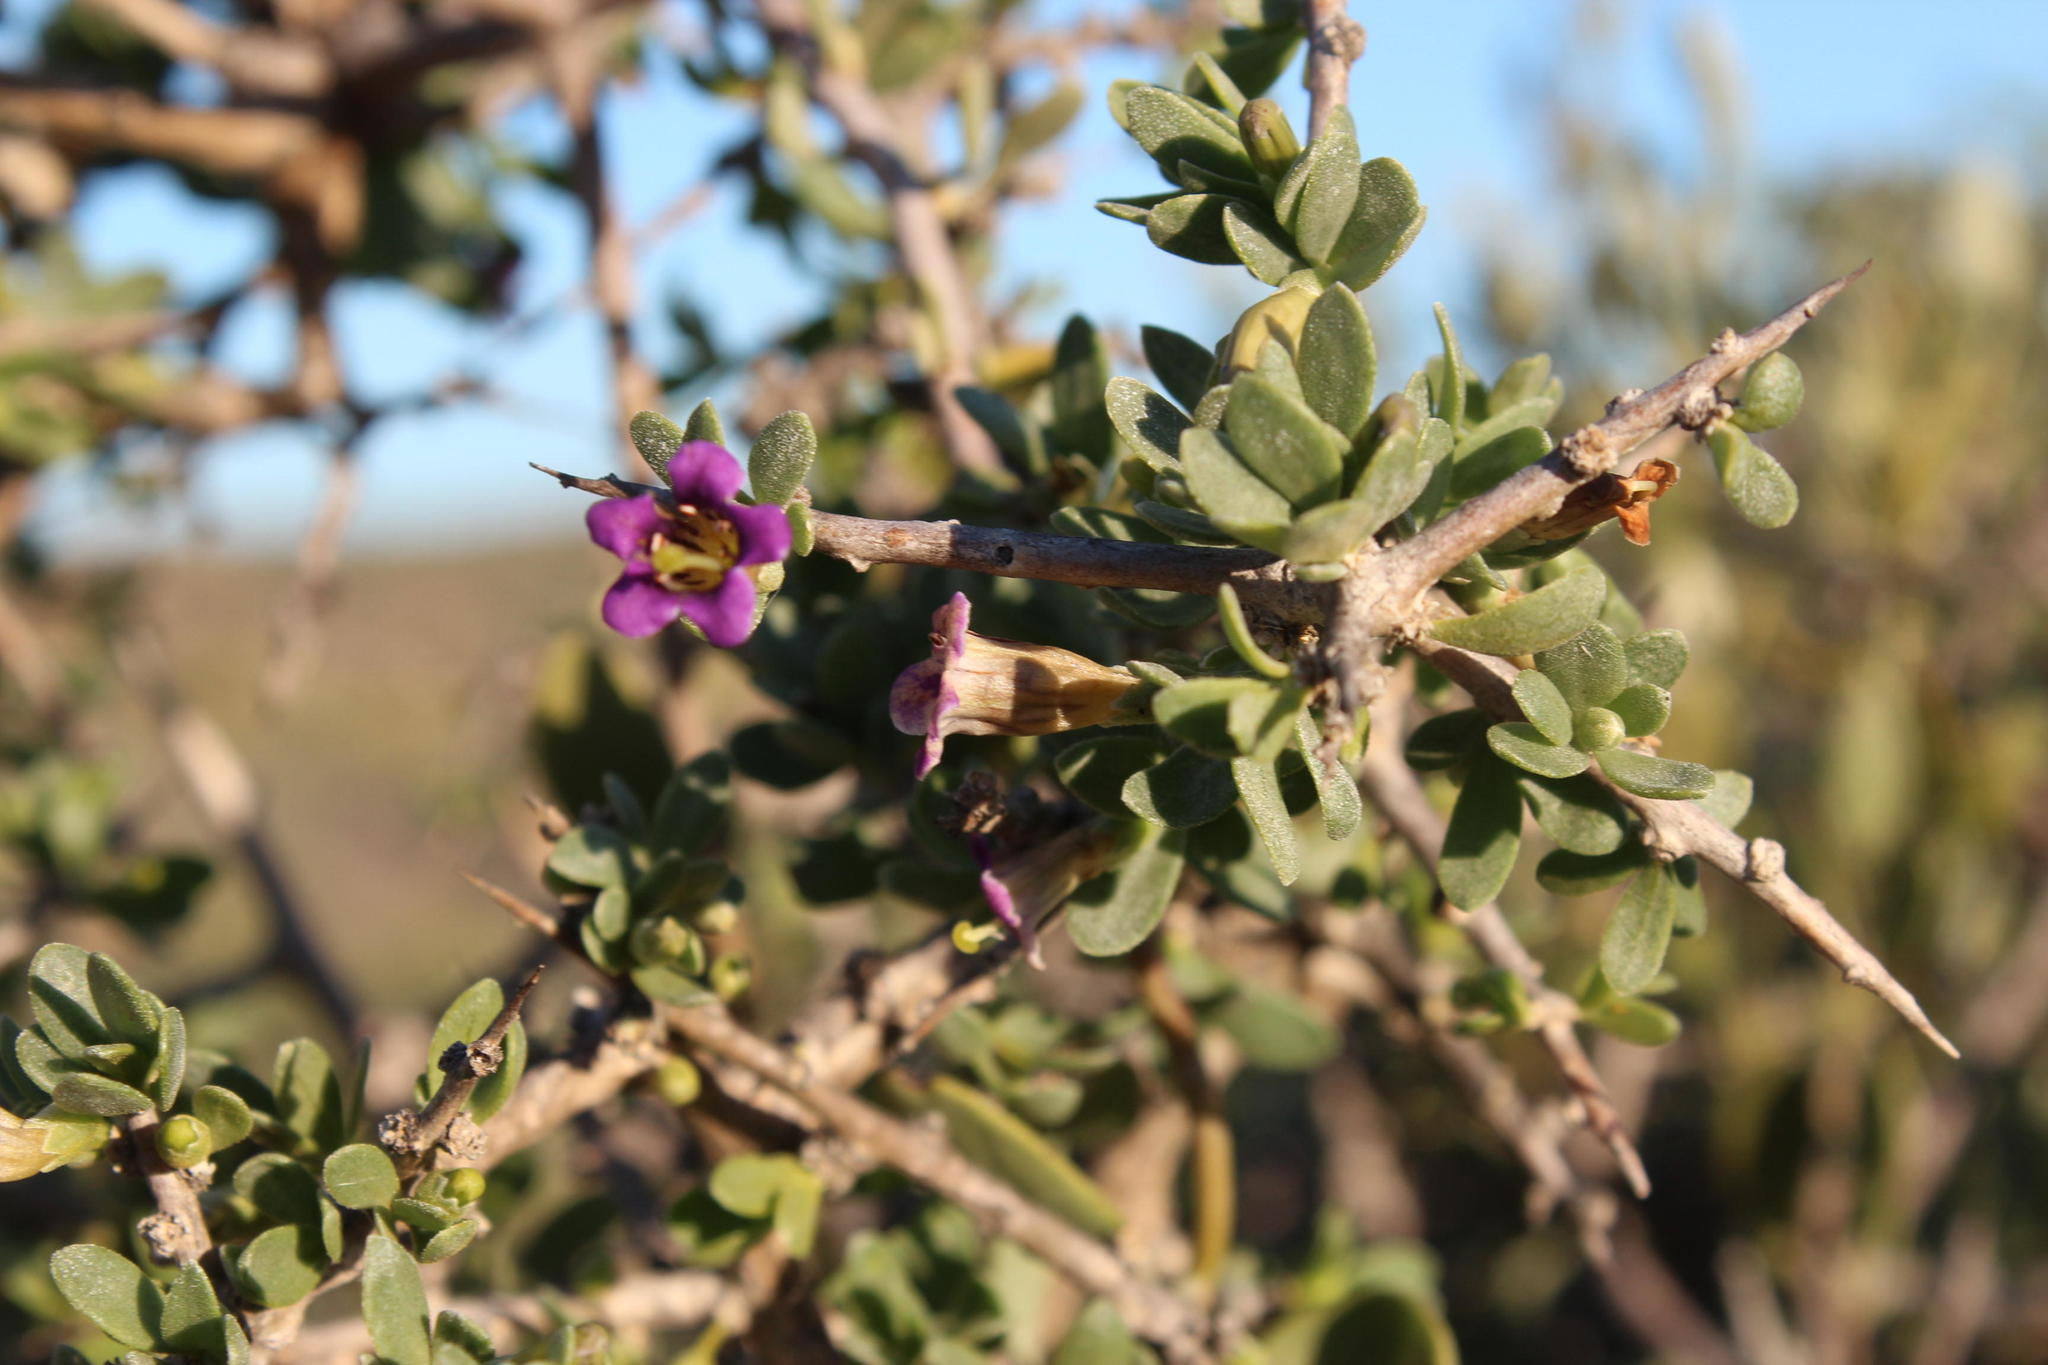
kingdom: Plantae
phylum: Tracheophyta
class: Magnoliopsida
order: Solanales
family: Solanaceae
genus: Lycium
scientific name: Lycium strandveldense
